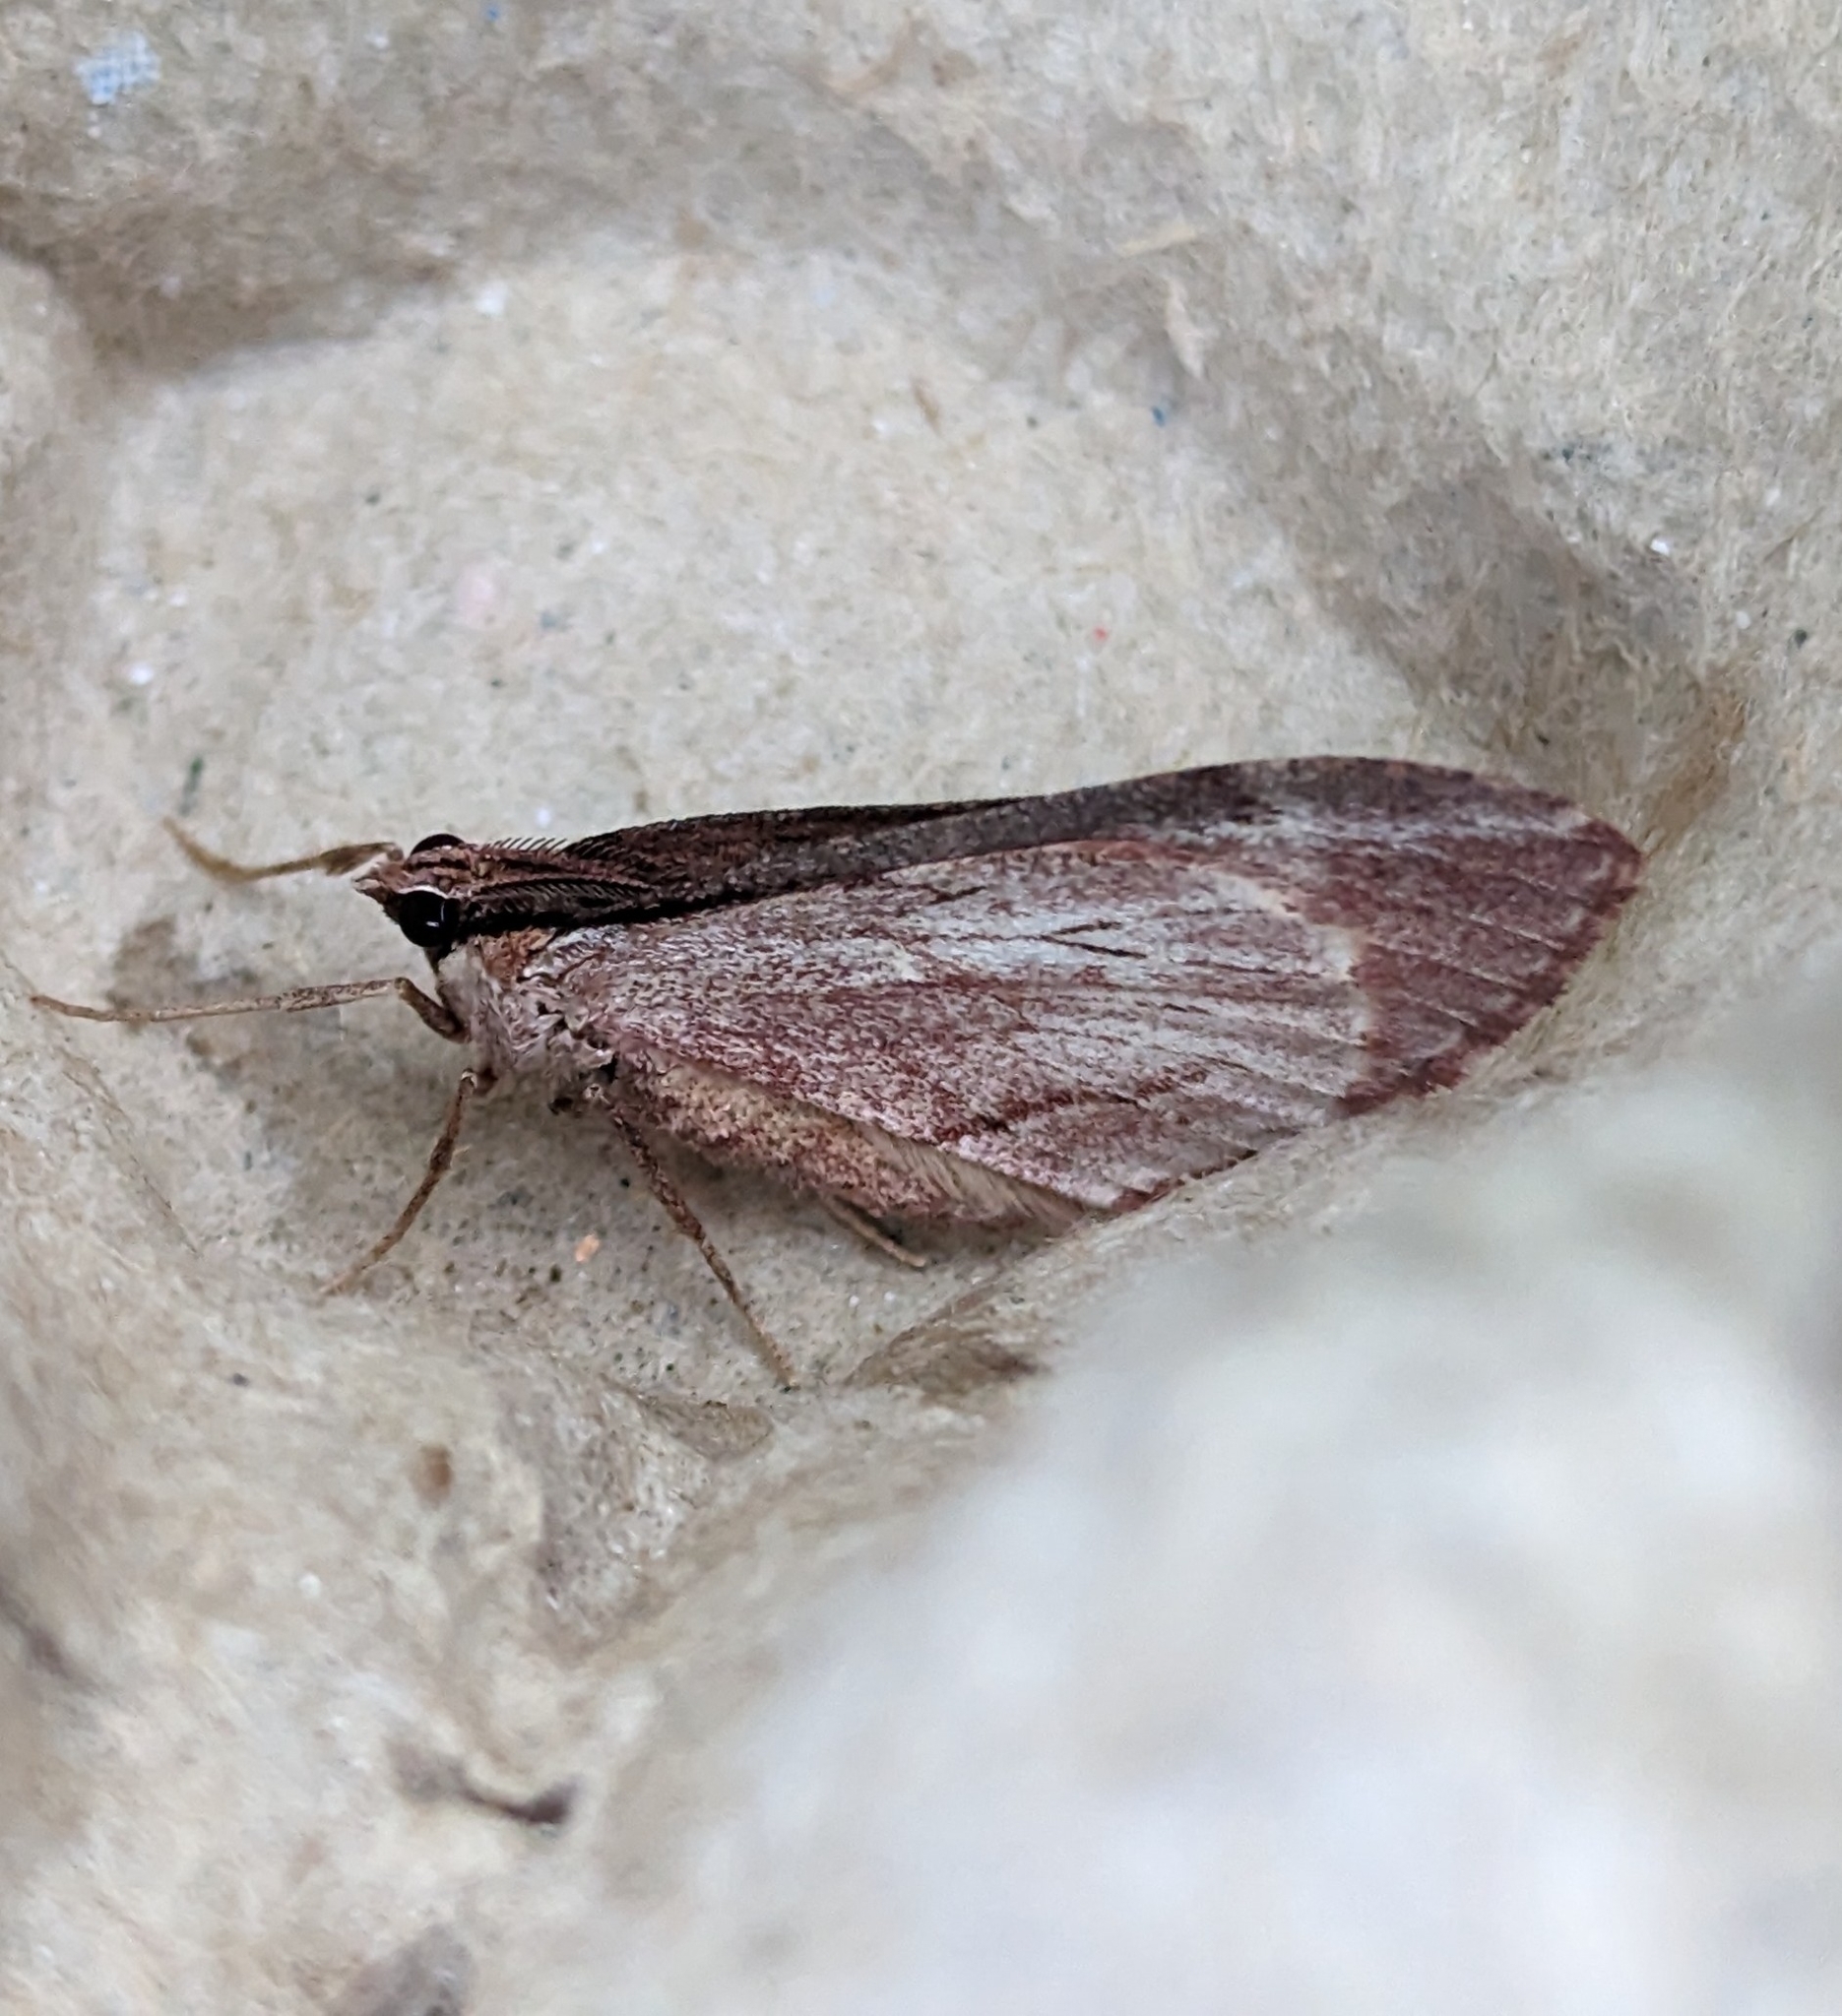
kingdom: Animalia
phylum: Arthropoda
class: Insecta
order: Lepidoptera
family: Geometridae
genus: Stamnoctenis
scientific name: Stamnoctenis pearsalli
